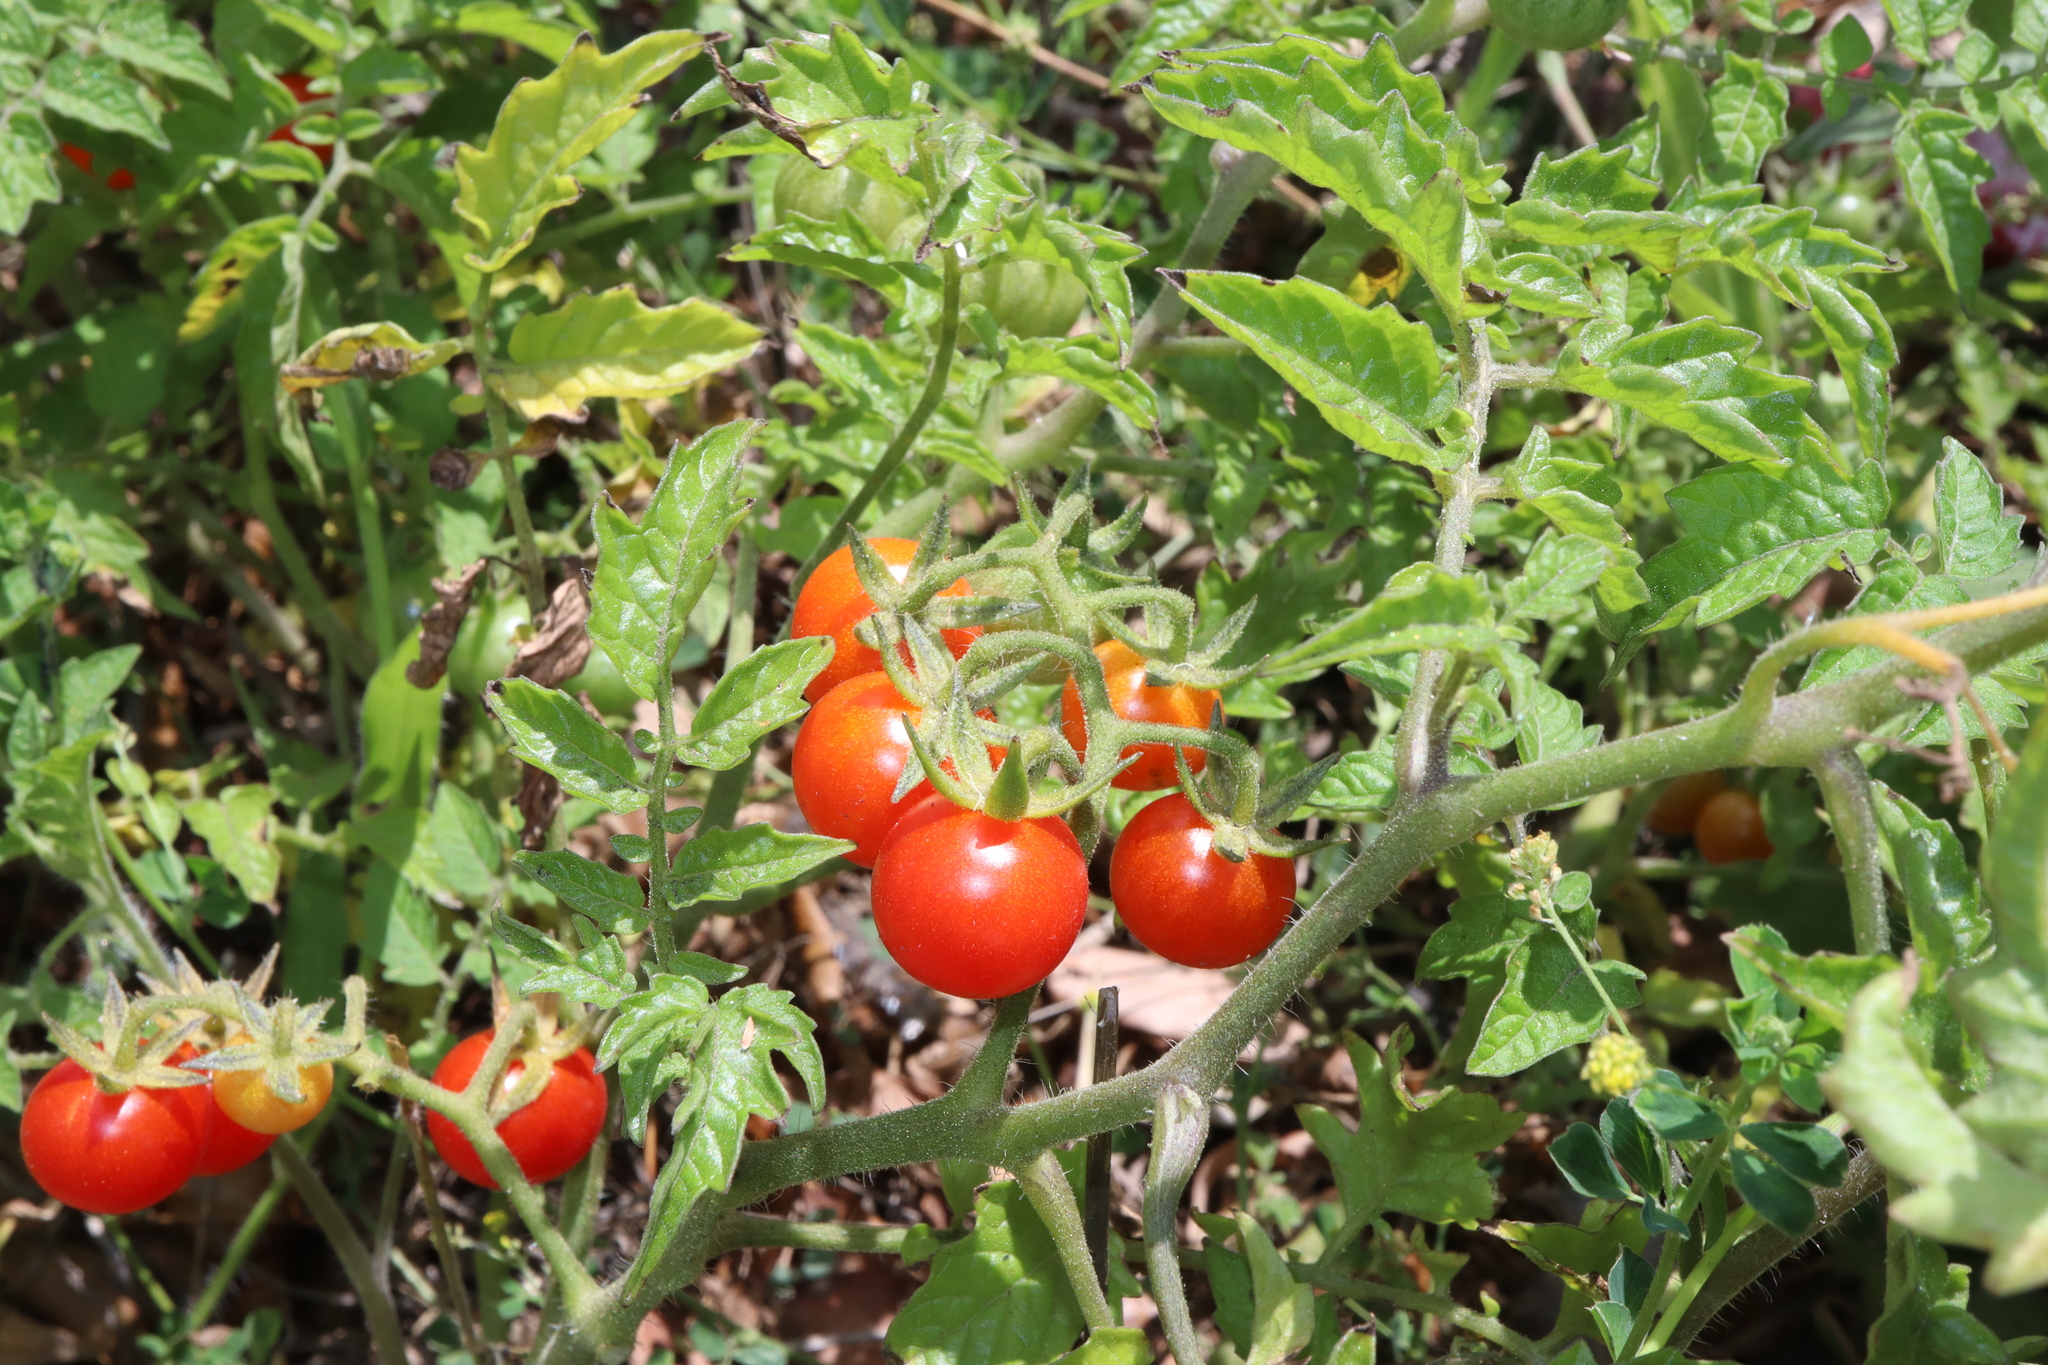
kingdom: Plantae
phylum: Tracheophyta
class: Magnoliopsida
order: Solanales
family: Solanaceae
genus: Solanum
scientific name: Solanum lycopersicum
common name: Garden tomato
